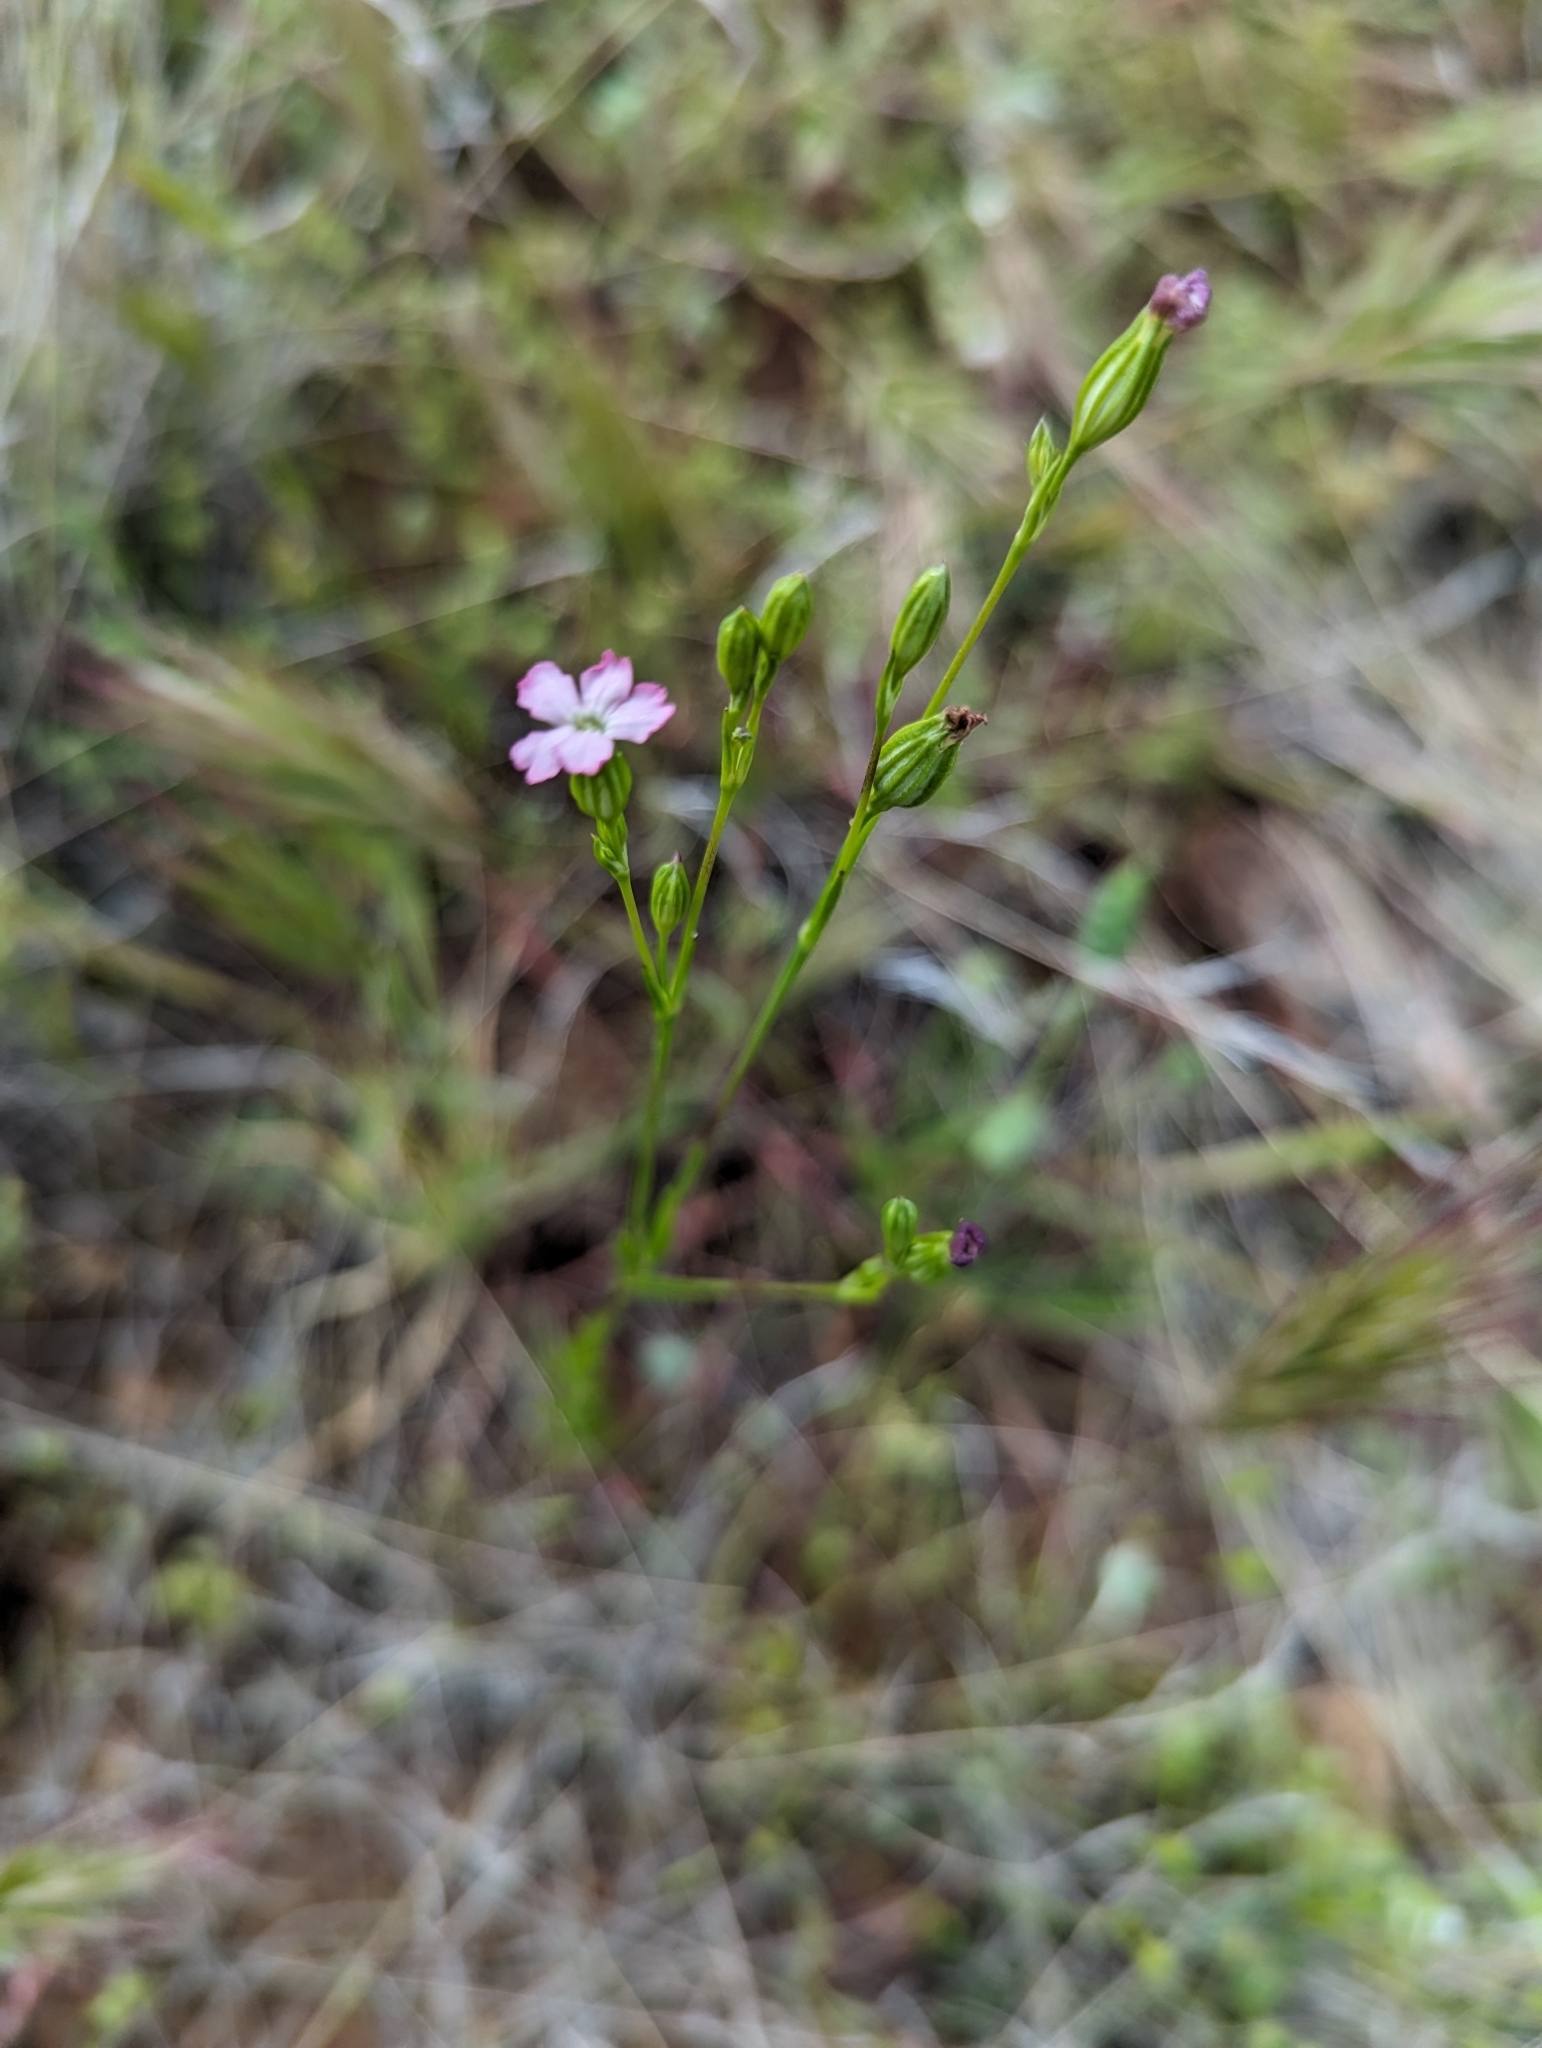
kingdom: Plantae
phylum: Tracheophyta
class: Magnoliopsida
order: Caryophyllales
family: Caryophyllaceae
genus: Silene
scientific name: Silene antirrhina
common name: Sleepy catchfly
